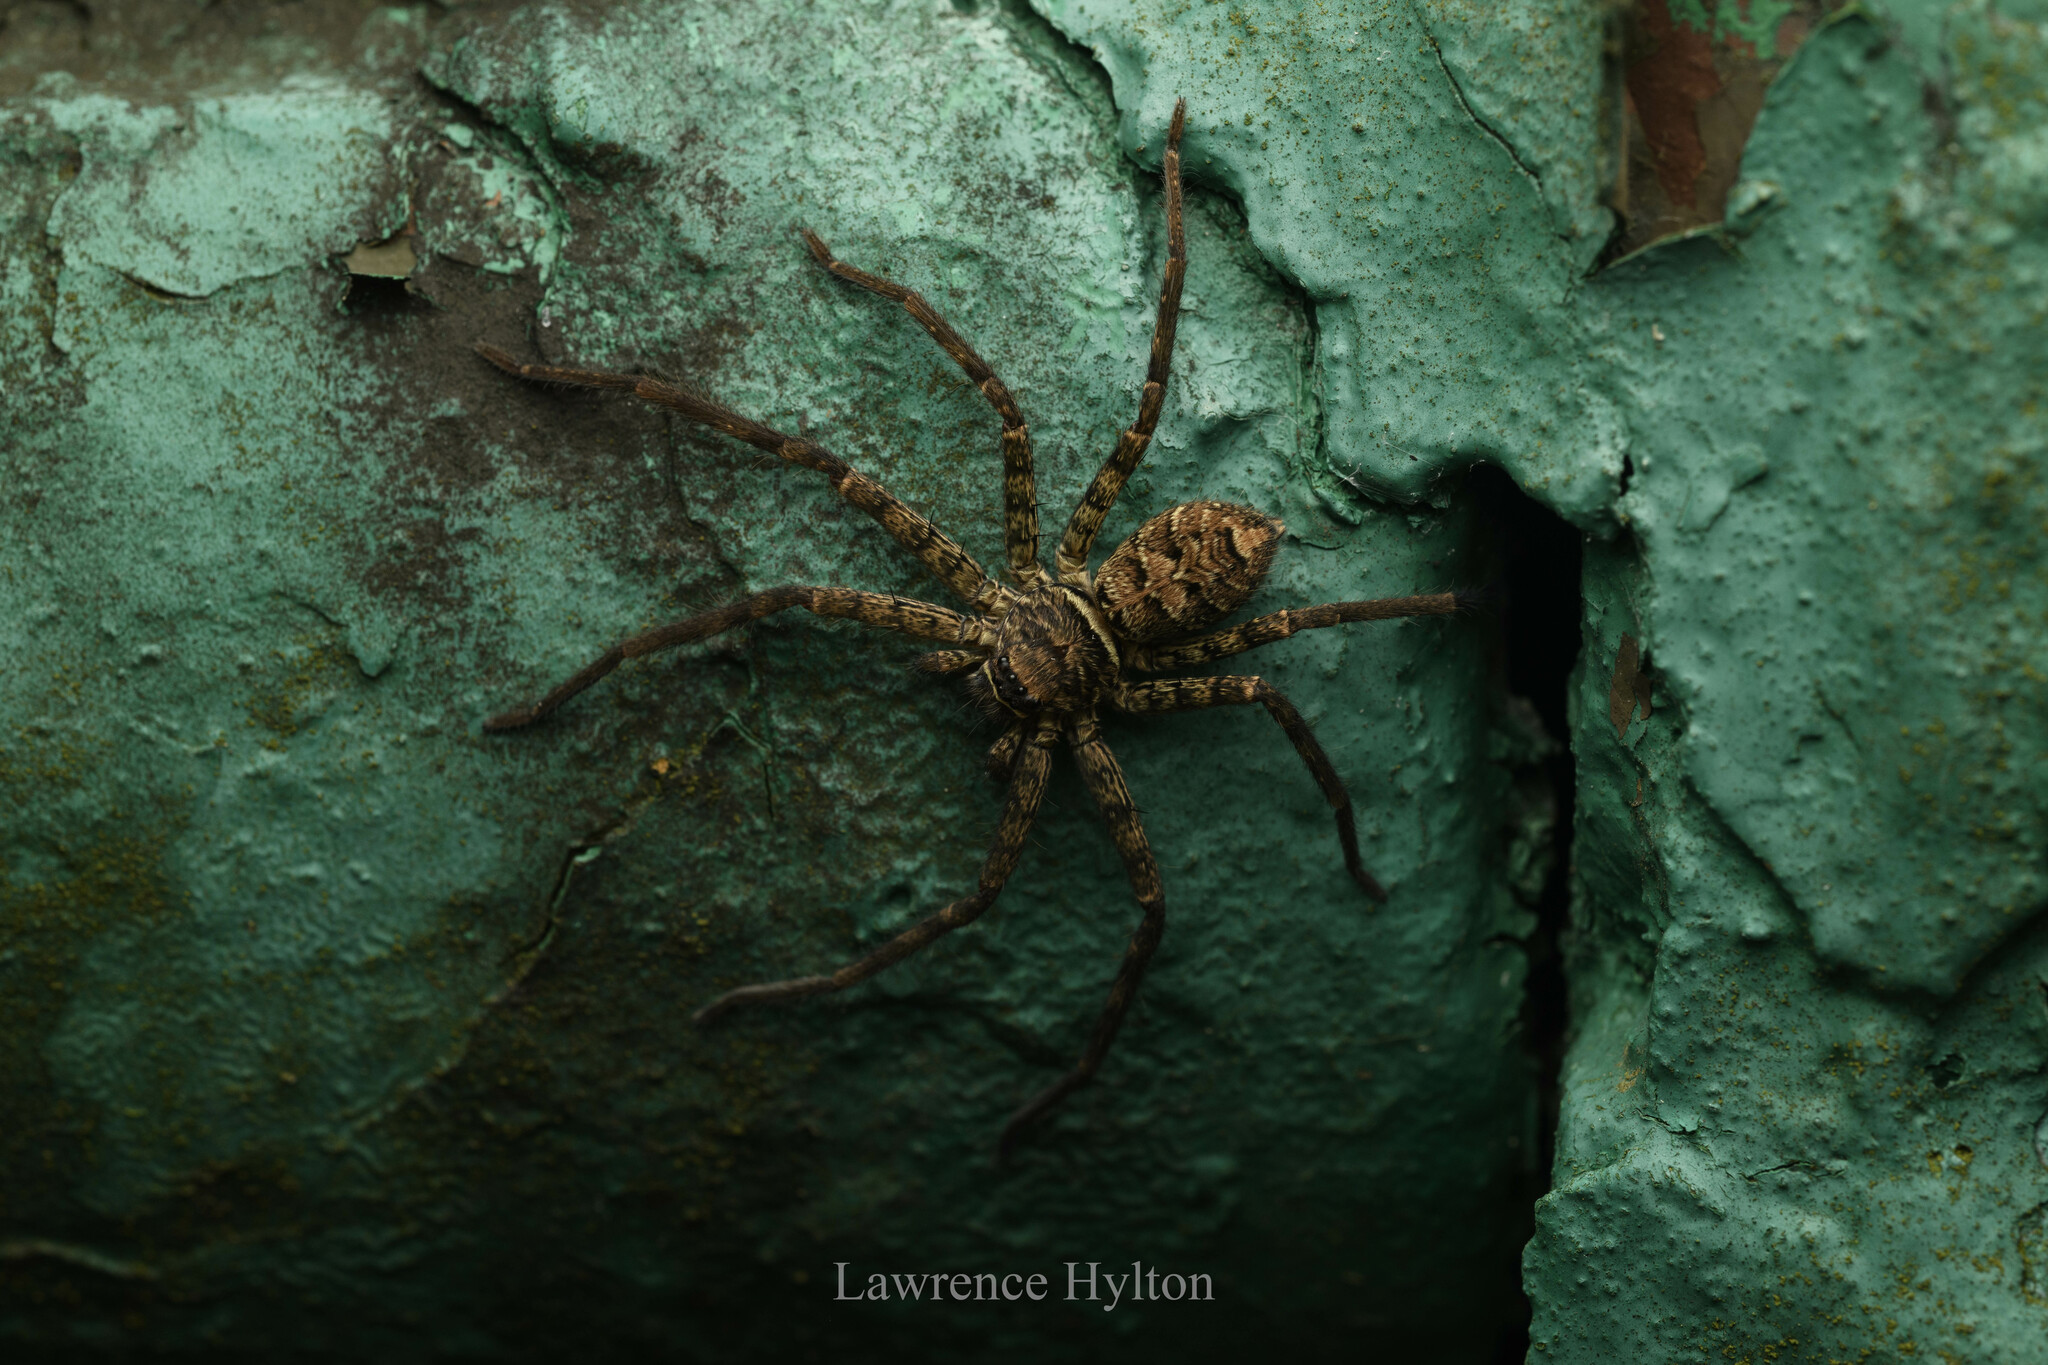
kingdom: Animalia
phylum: Arthropoda
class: Arachnida
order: Araneae
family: Sparassidae
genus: Heteropoda
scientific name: Heteropoda venatoria
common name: Huntsman spider
